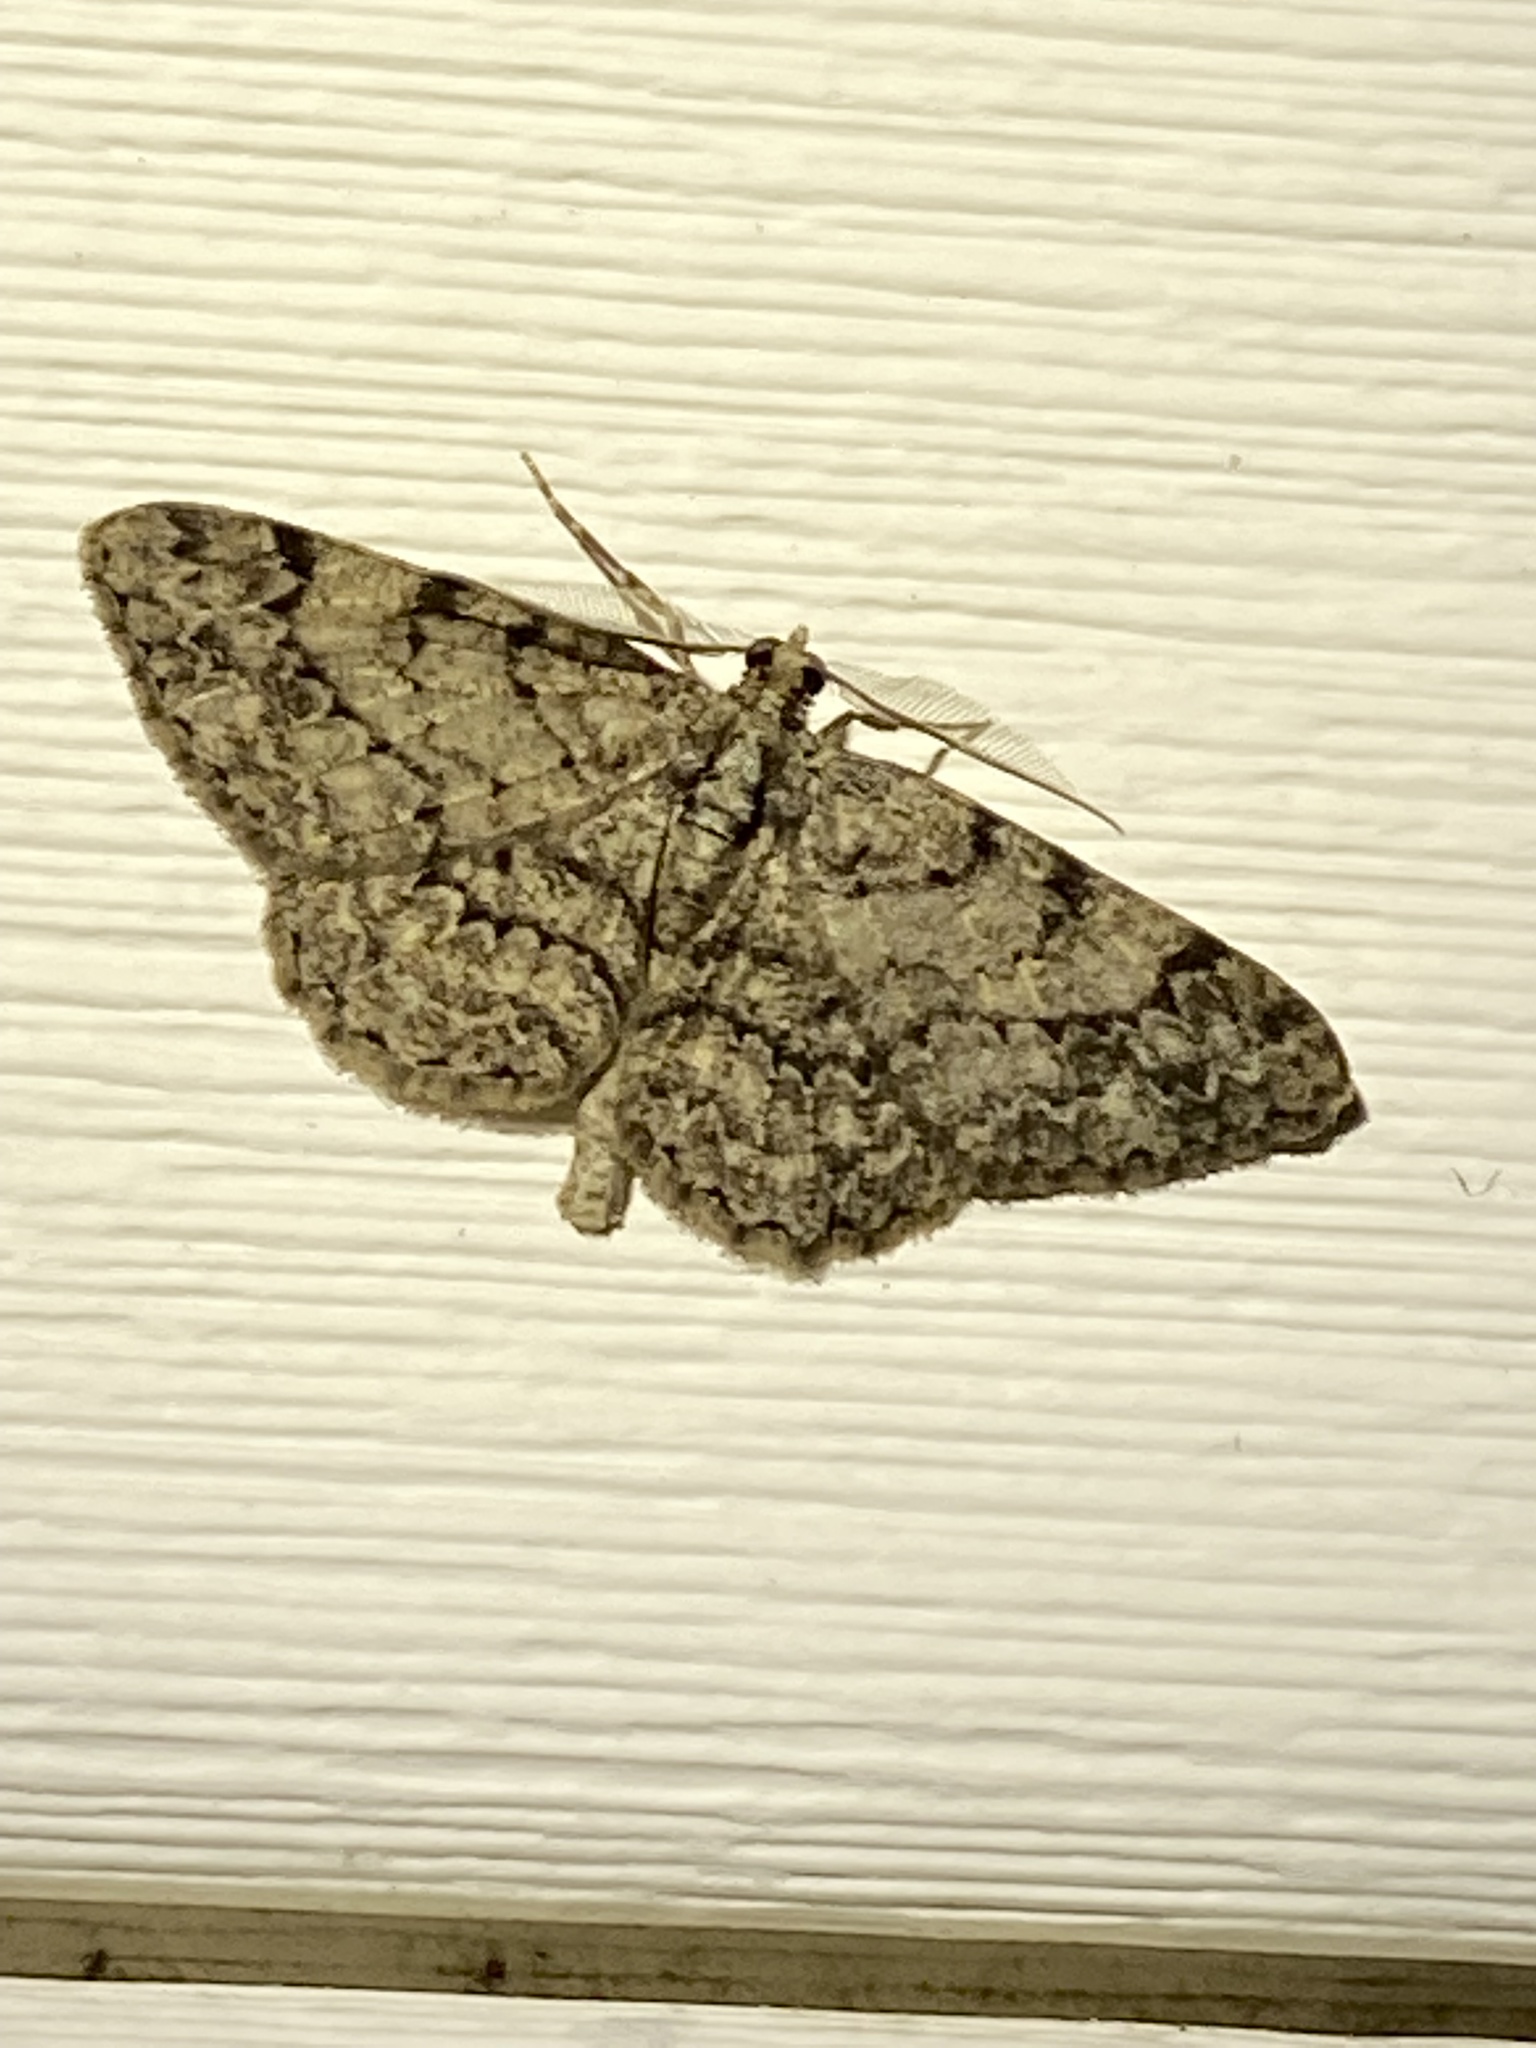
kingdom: Animalia
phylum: Arthropoda
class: Insecta
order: Lepidoptera
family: Geometridae
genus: Protoboarmia
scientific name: Protoboarmia porcelaria
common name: Porcelain gray
